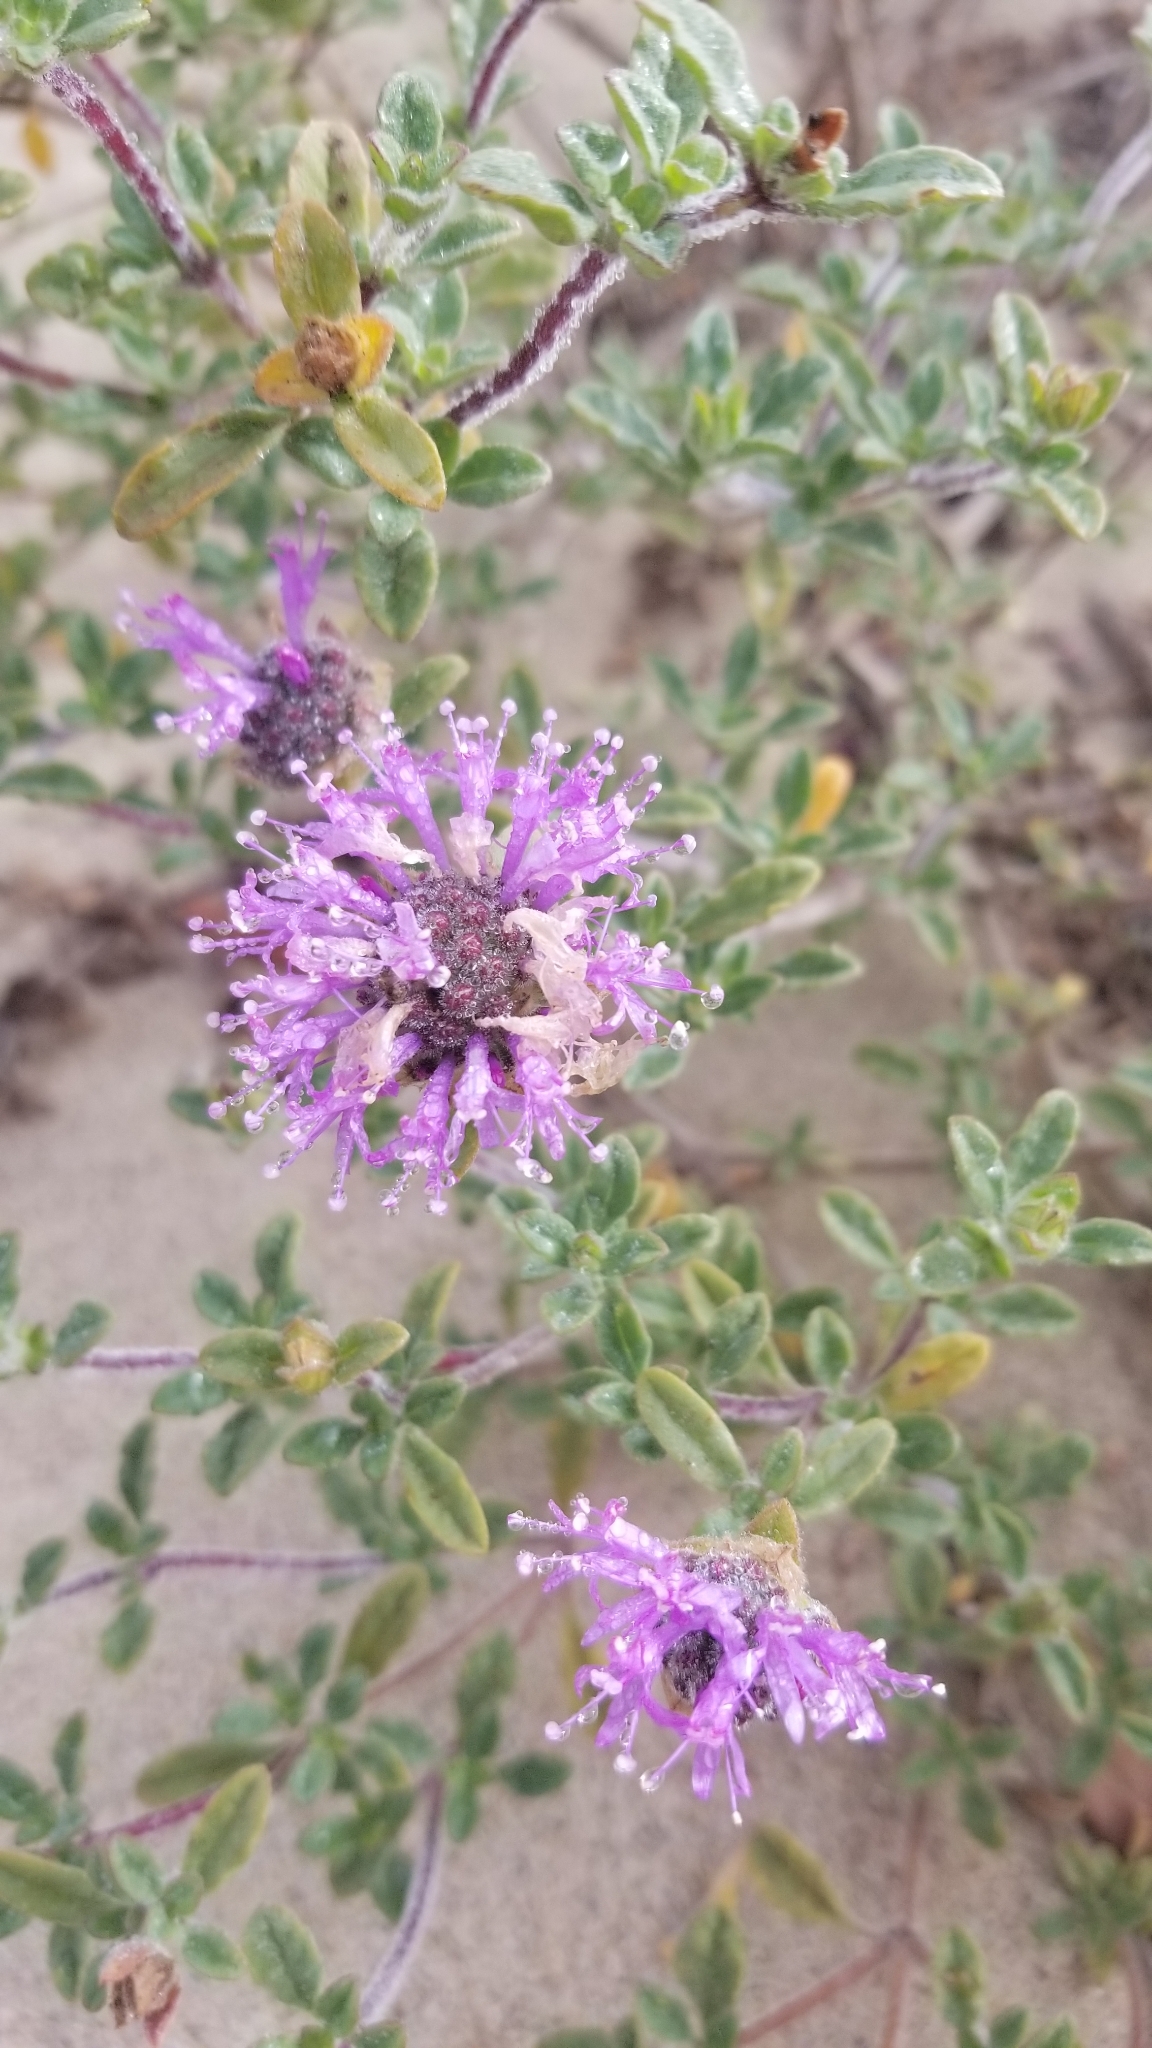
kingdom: Plantae
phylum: Tracheophyta
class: Magnoliopsida
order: Lamiales
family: Lamiaceae
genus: Monardella
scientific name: Monardella undulata
